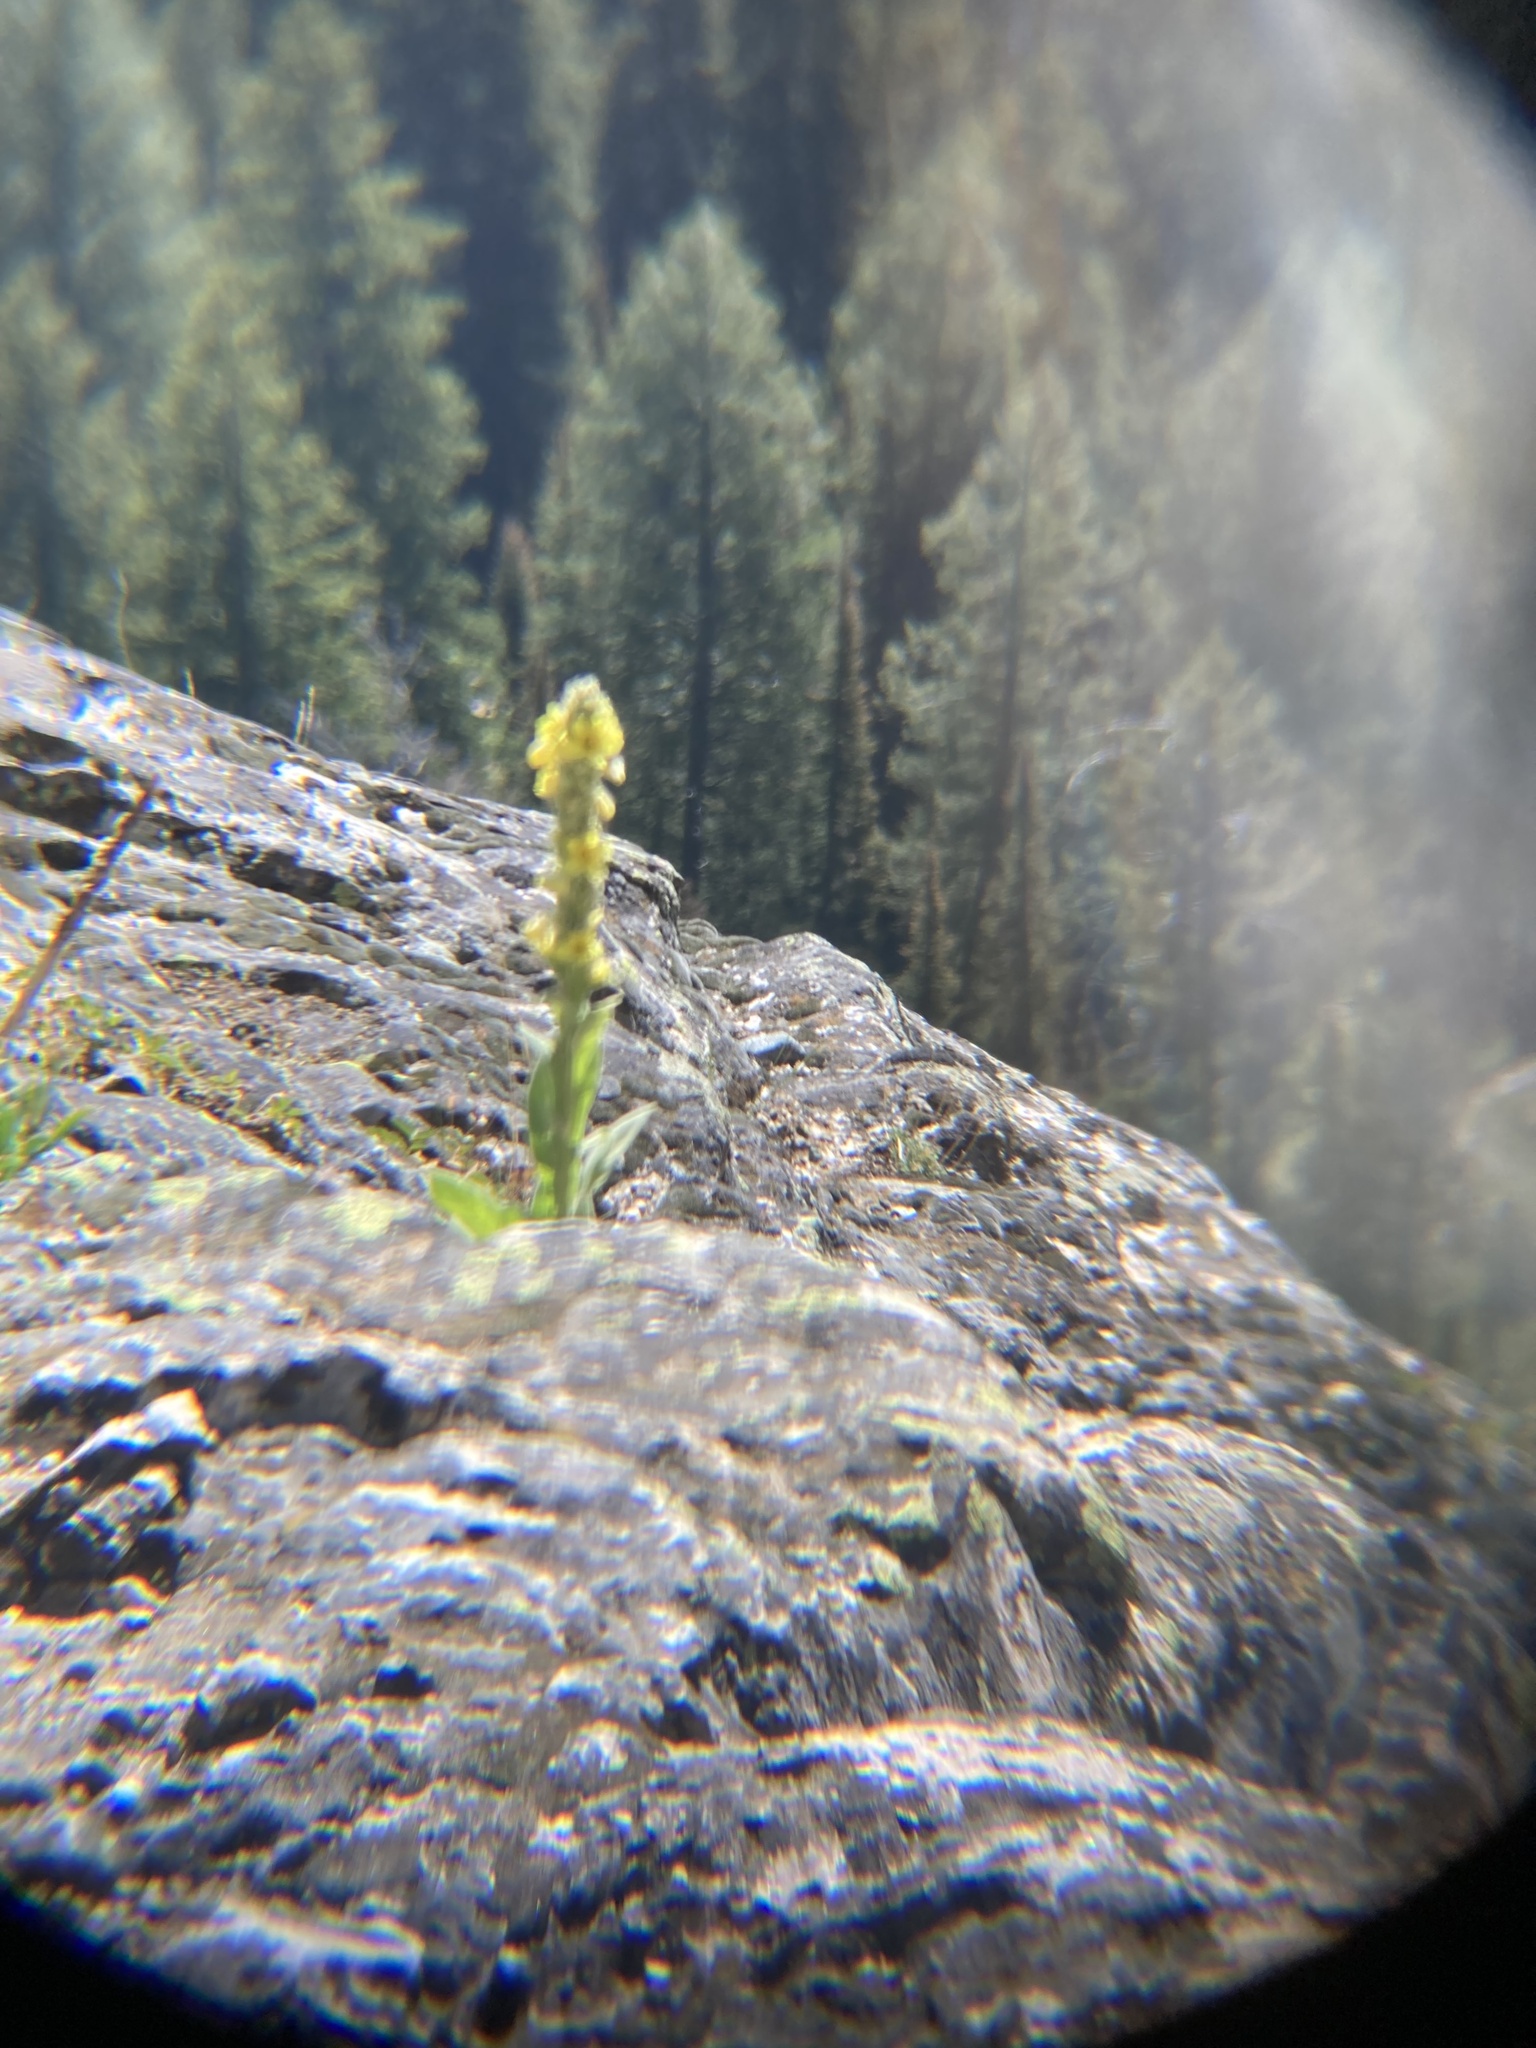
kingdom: Plantae
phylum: Tracheophyta
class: Magnoliopsida
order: Lamiales
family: Scrophulariaceae
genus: Verbascum
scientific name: Verbascum thapsus
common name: Common mullein
